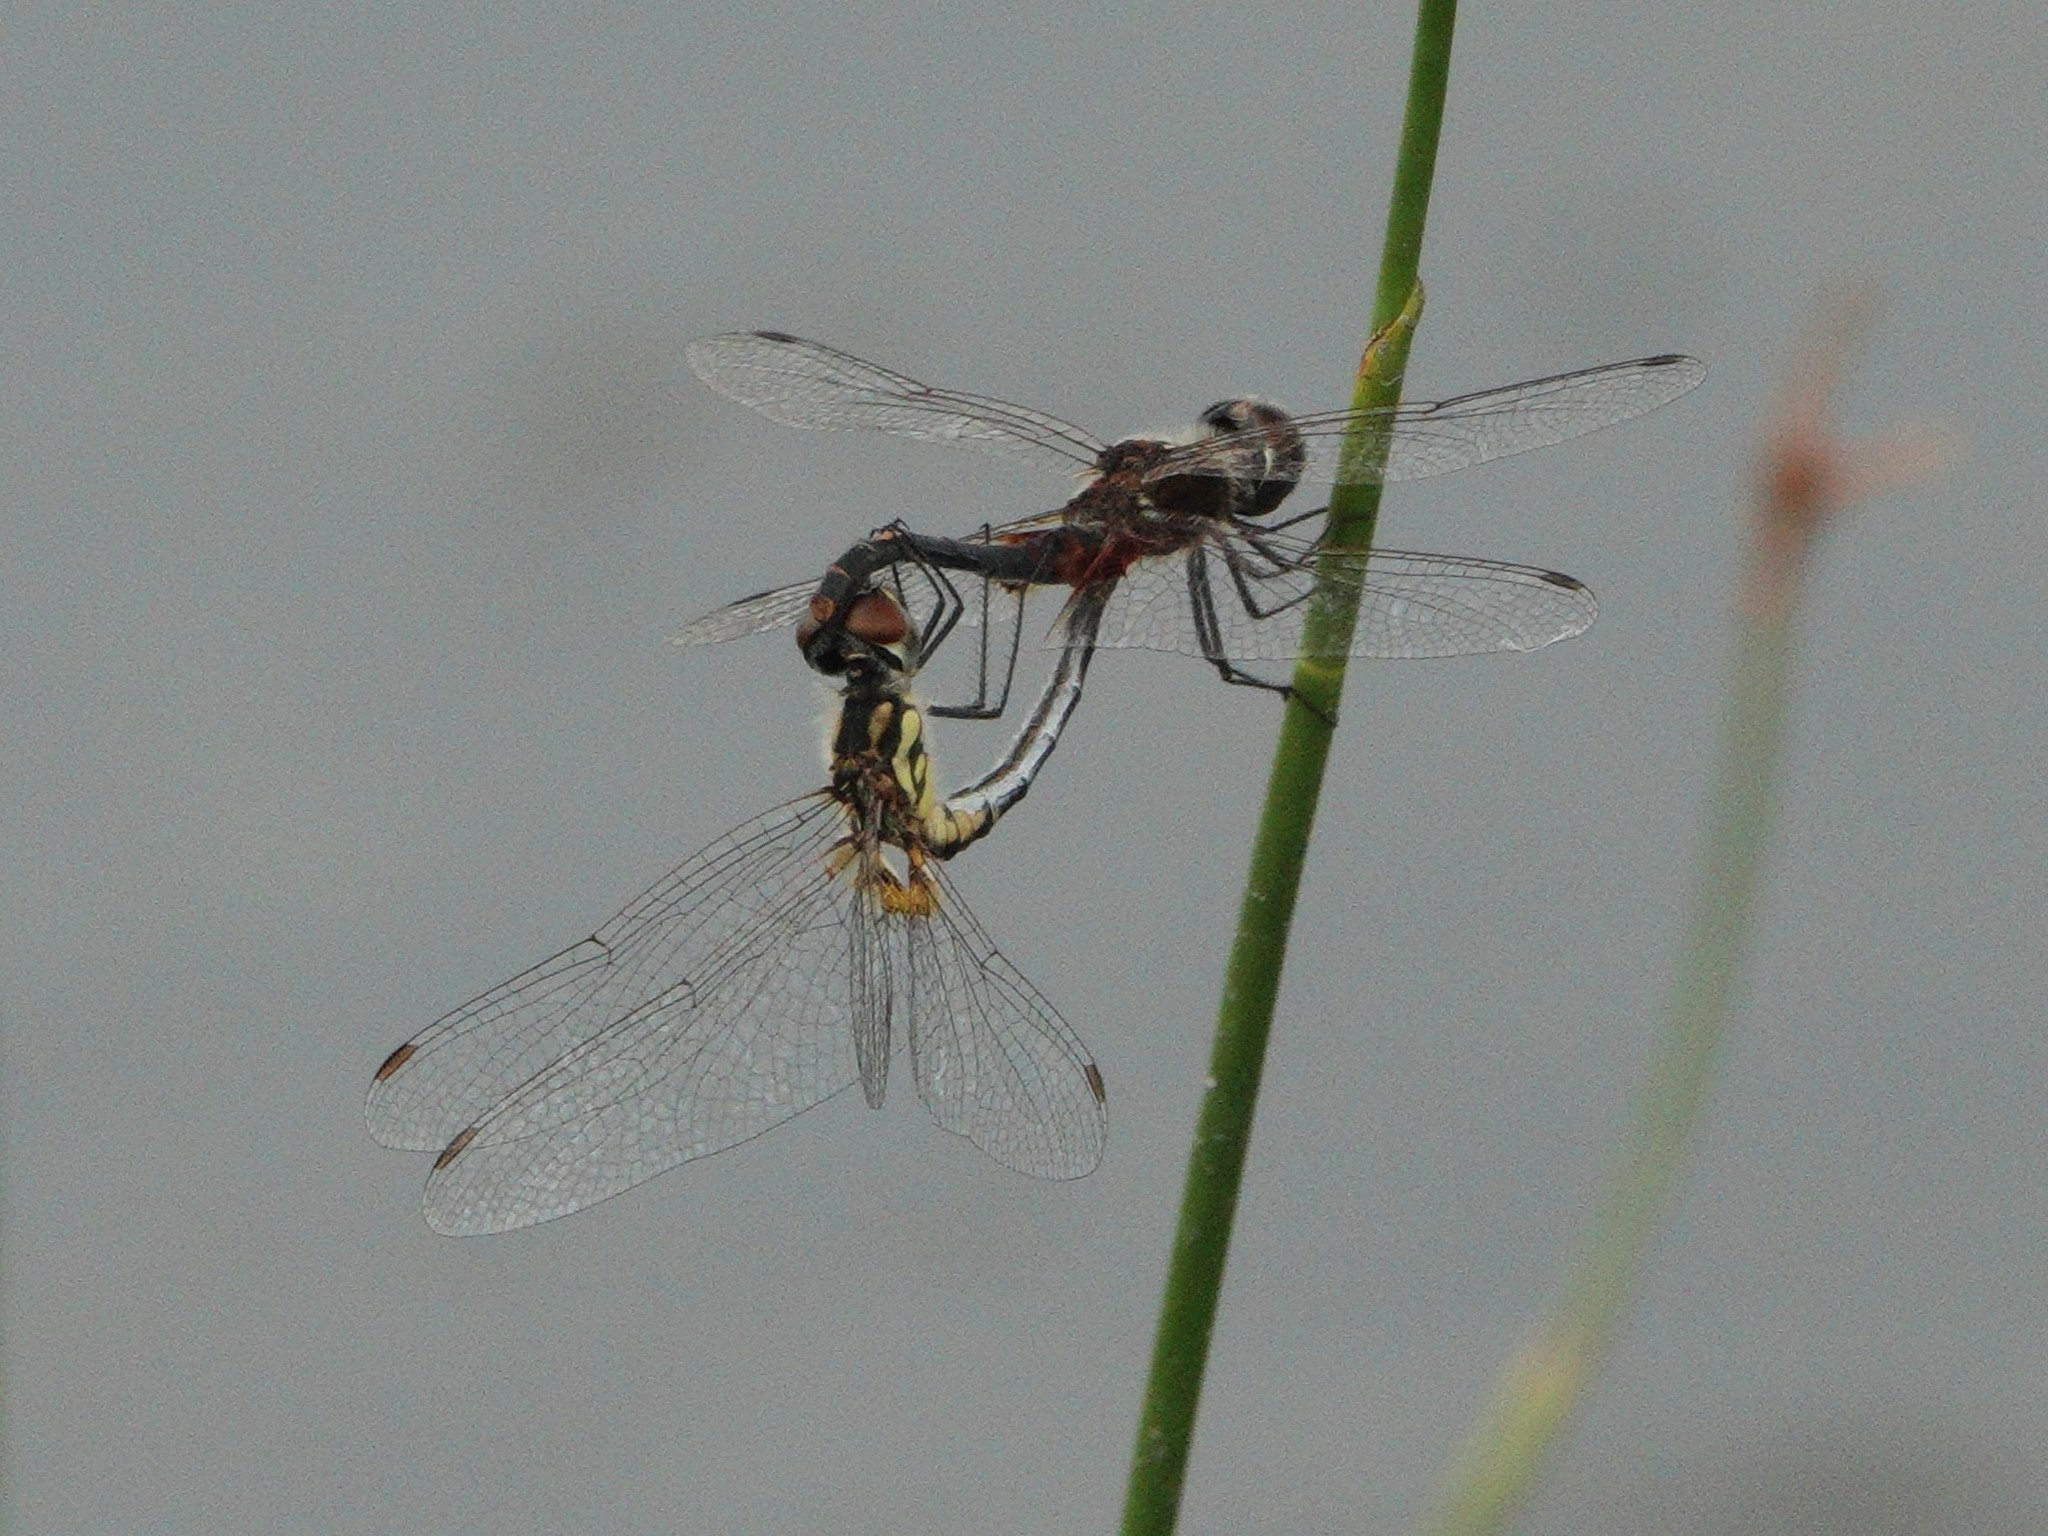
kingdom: Animalia
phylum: Arthropoda
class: Insecta
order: Odonata
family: Libellulidae
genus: Celithemis
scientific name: Celithemis ornata
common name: Ornate pennant
